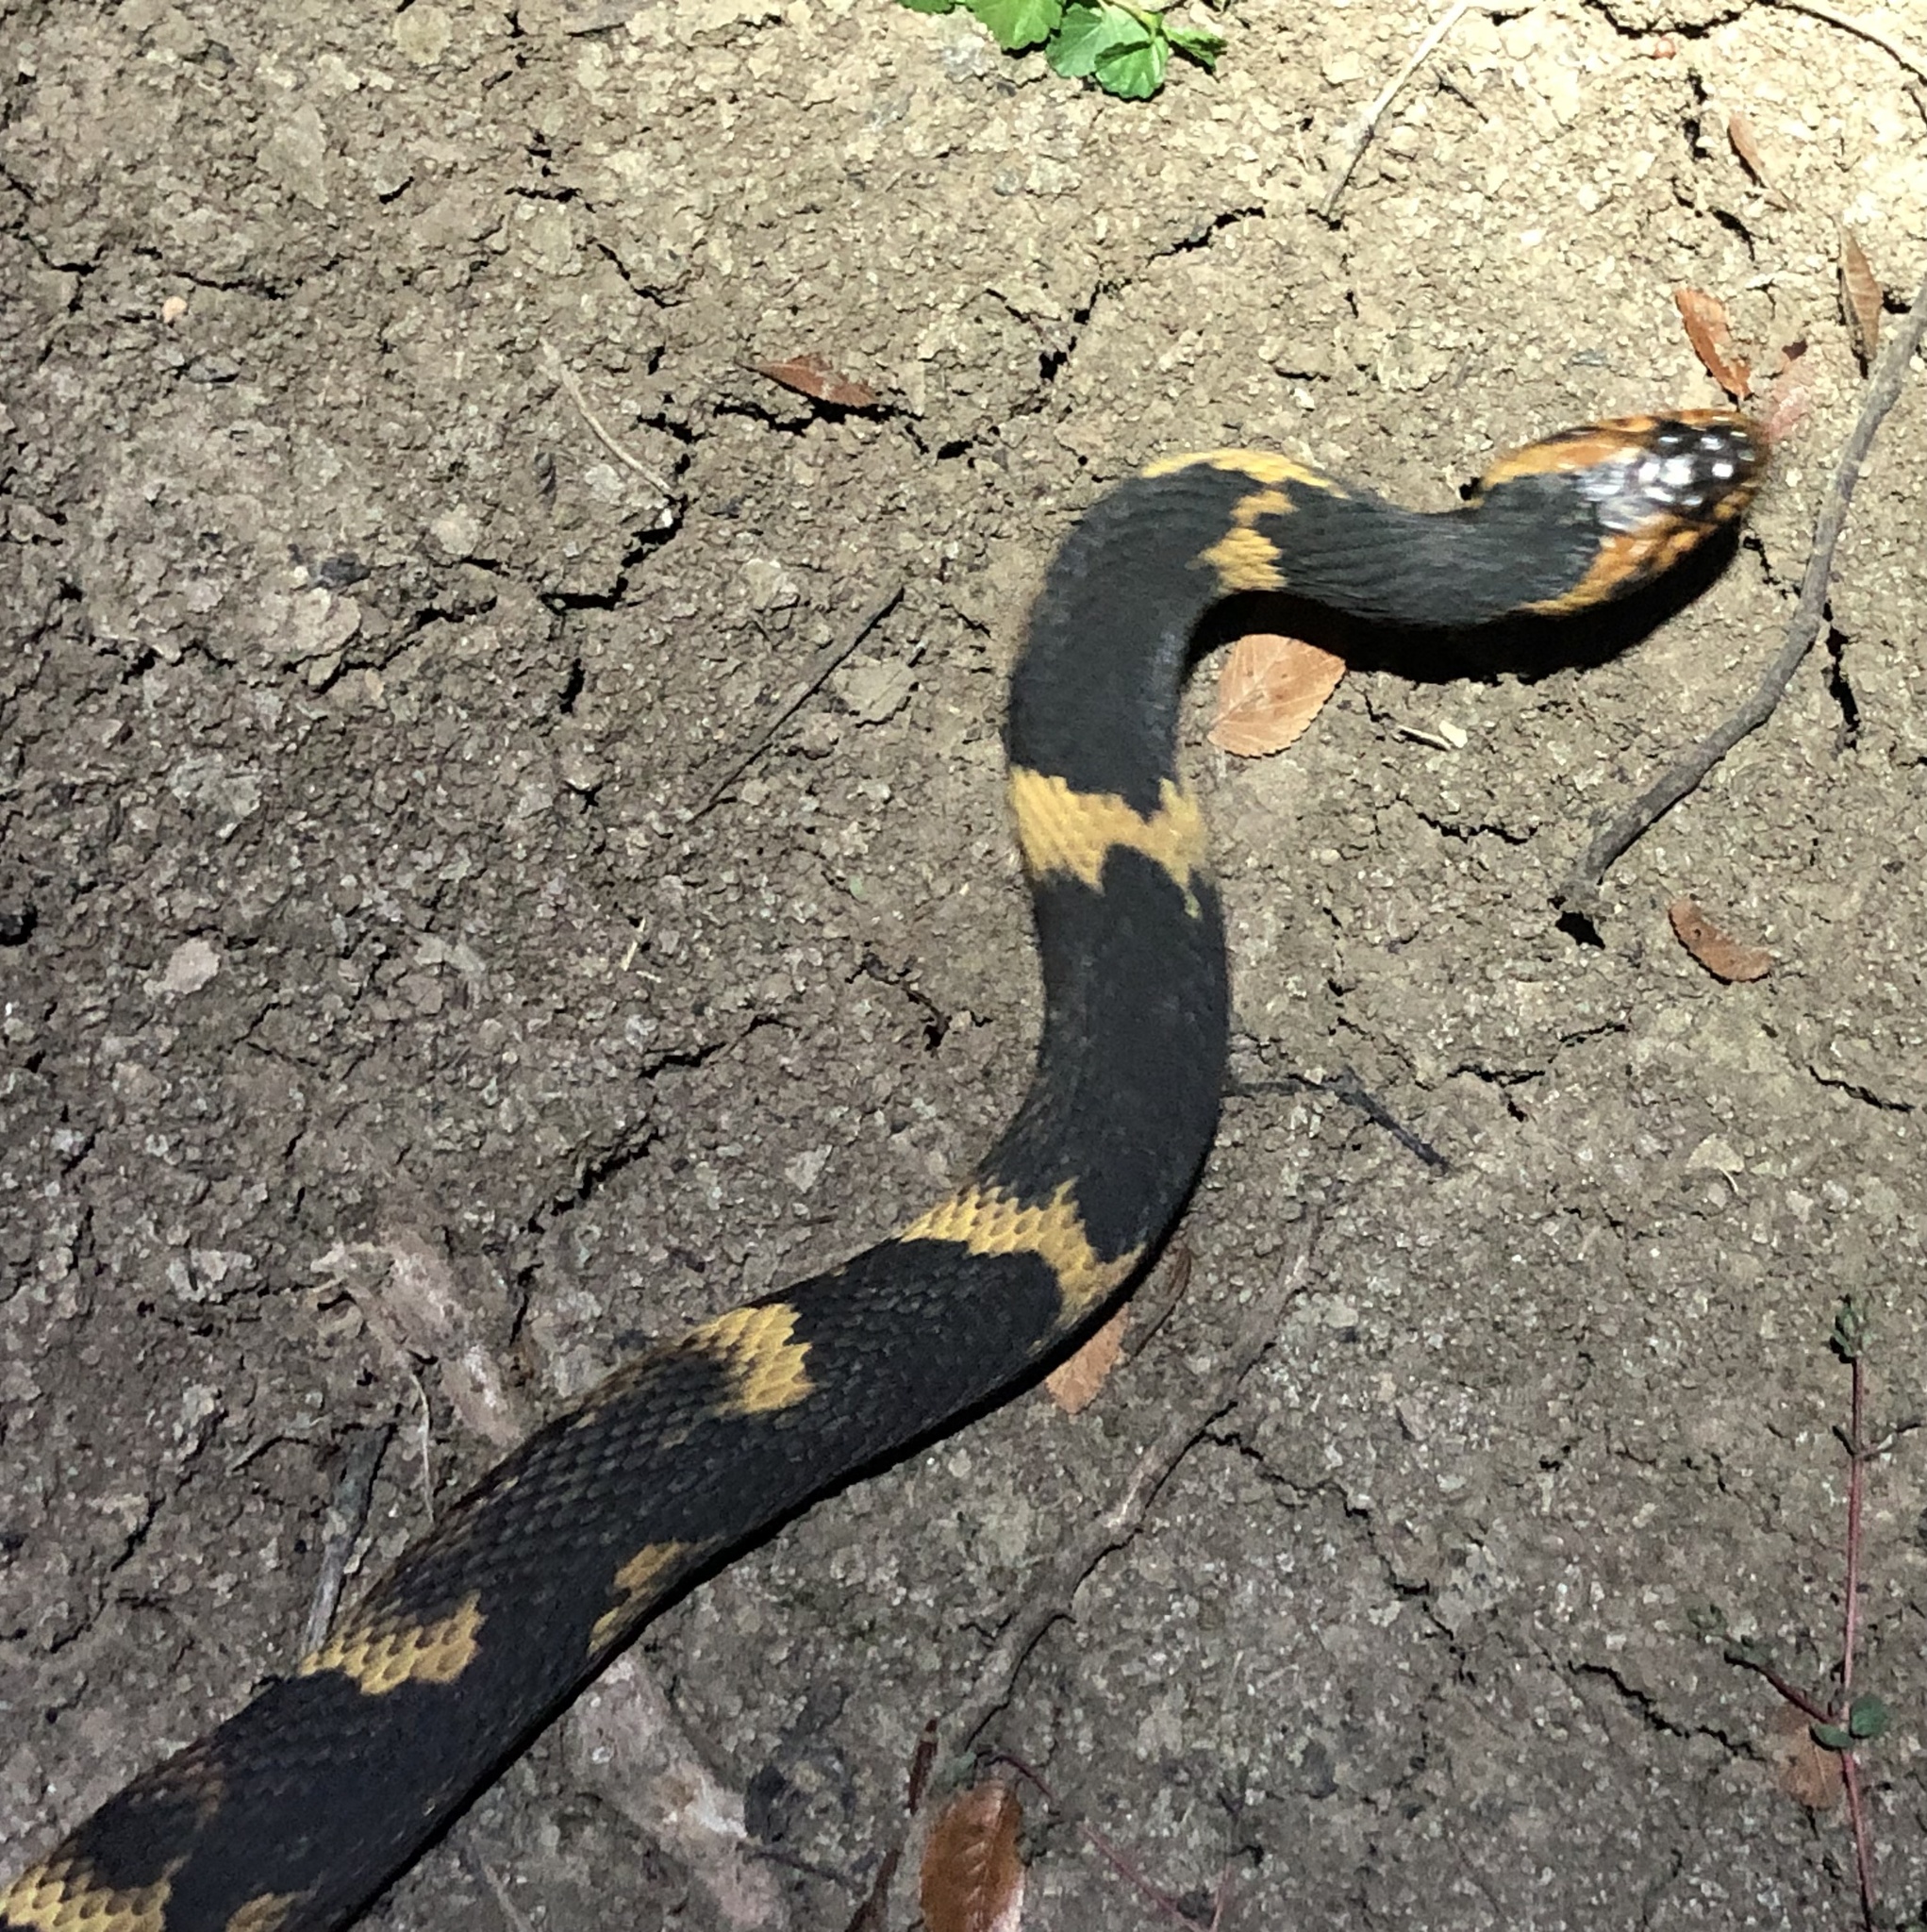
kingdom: Animalia
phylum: Chordata
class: Squamata
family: Colubridae
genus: Nerodia
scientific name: Nerodia fasciata
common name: Southern water snake
